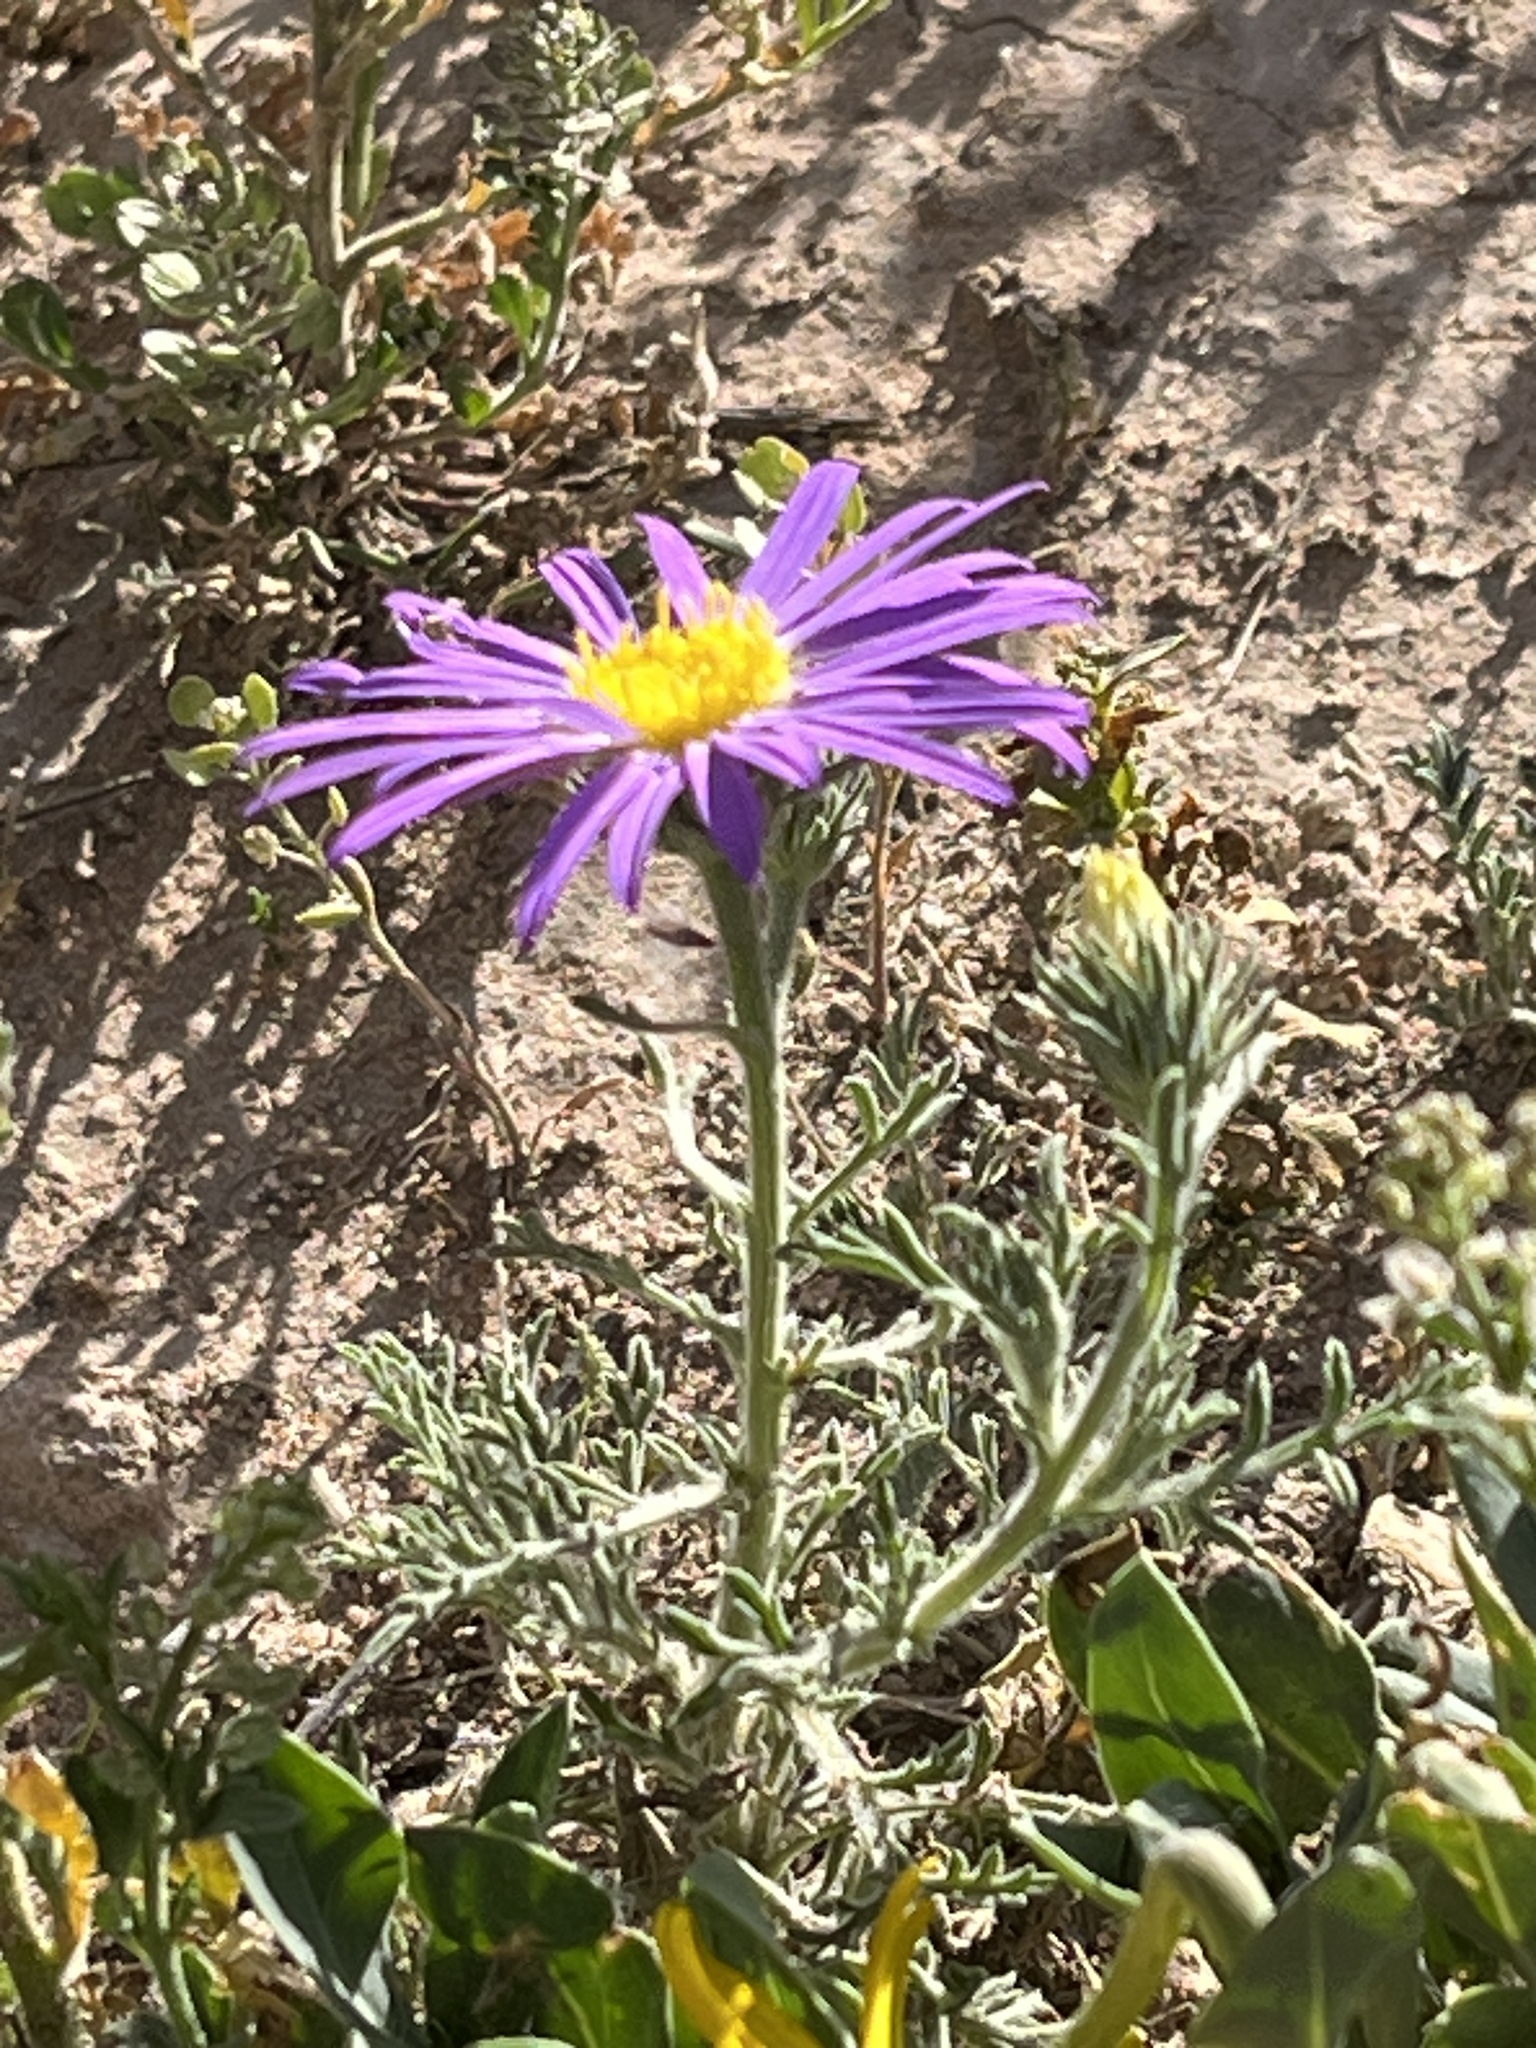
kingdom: Plantae
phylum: Tracheophyta
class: Magnoliopsida
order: Asterales
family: Asteraceae
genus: Machaeranthera
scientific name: Machaeranthera tanacetifolia
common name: Tansy-aster
